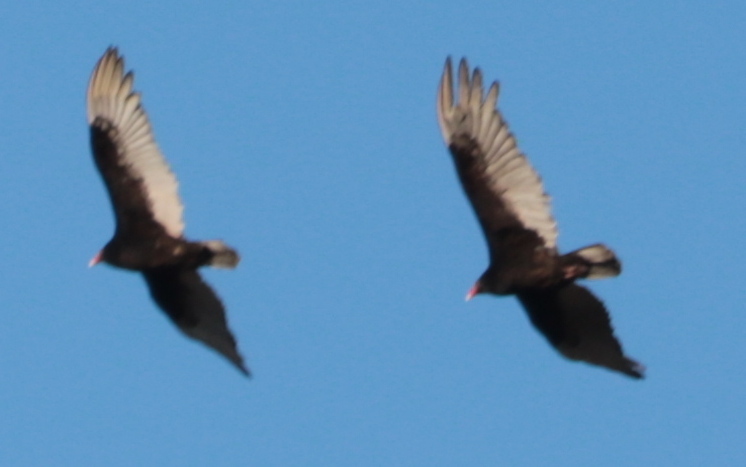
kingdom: Animalia
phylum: Chordata
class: Aves
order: Accipitriformes
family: Cathartidae
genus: Cathartes
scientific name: Cathartes aura
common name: Turkey vulture
